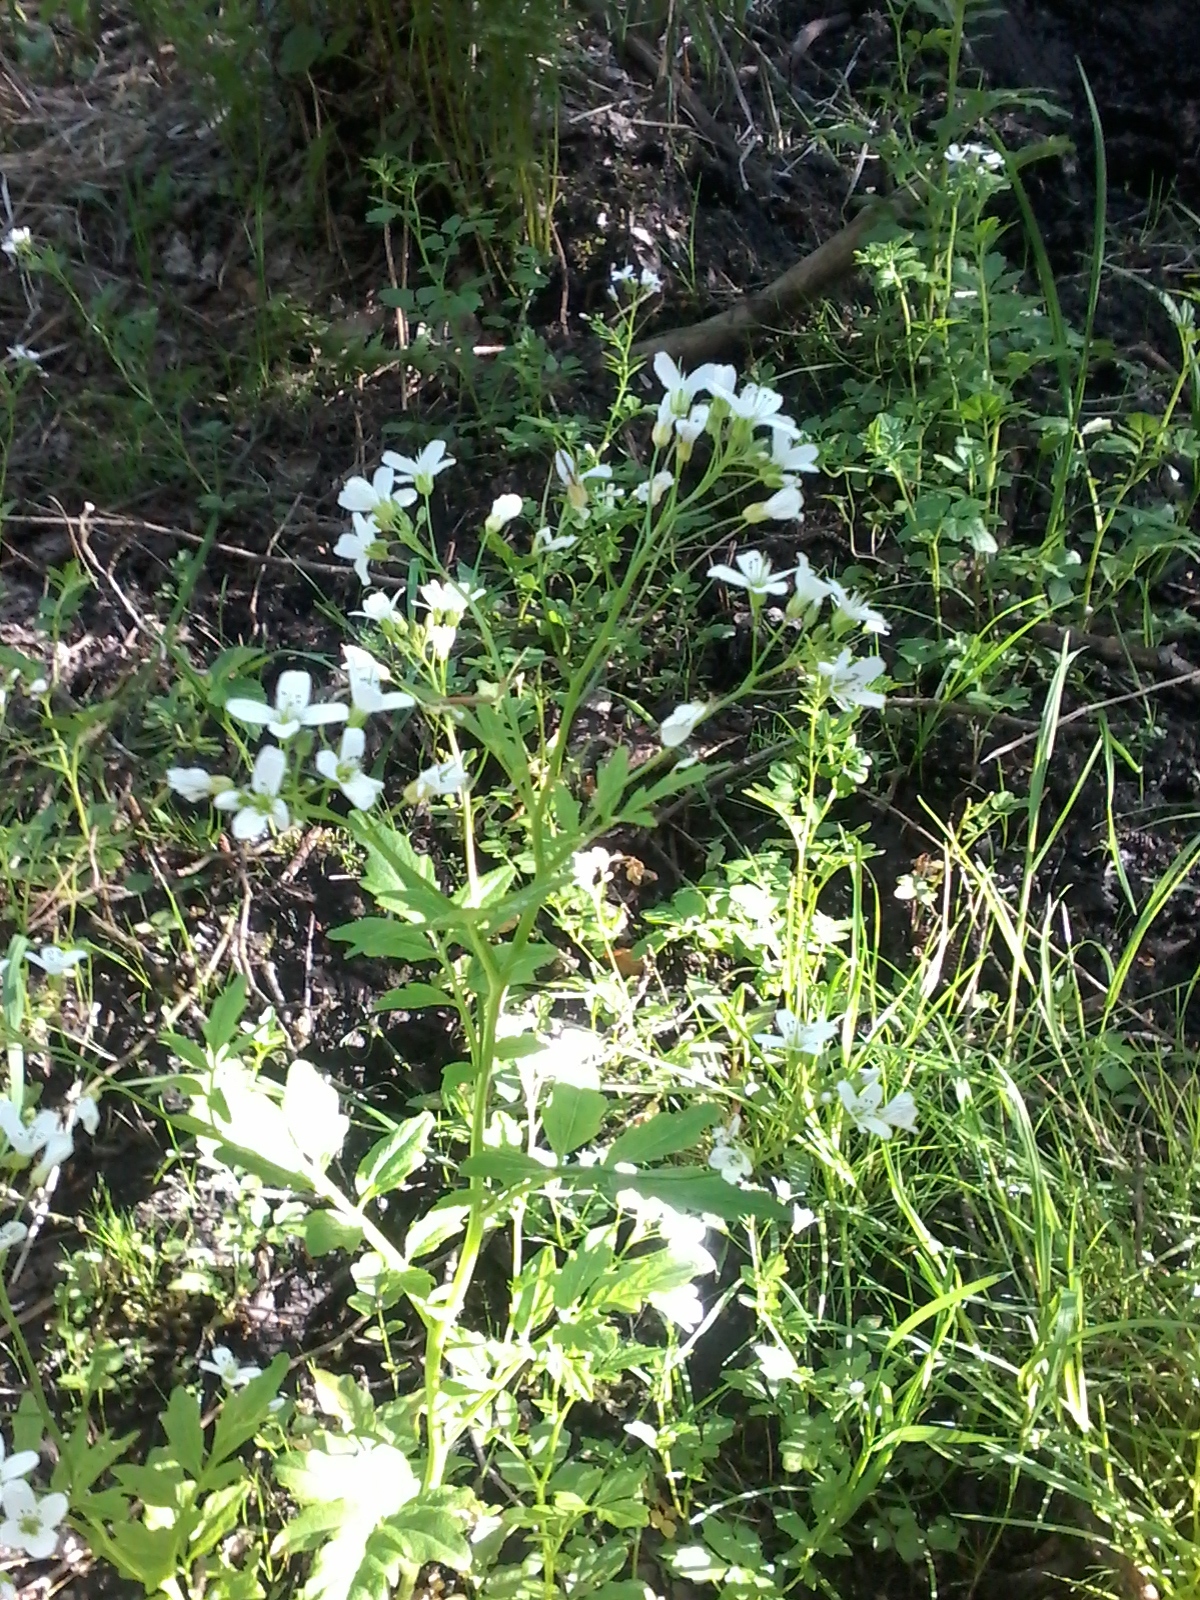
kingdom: Plantae
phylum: Tracheophyta
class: Magnoliopsida
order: Brassicales
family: Brassicaceae
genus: Cardamine
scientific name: Cardamine amara
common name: Large bitter-cress
